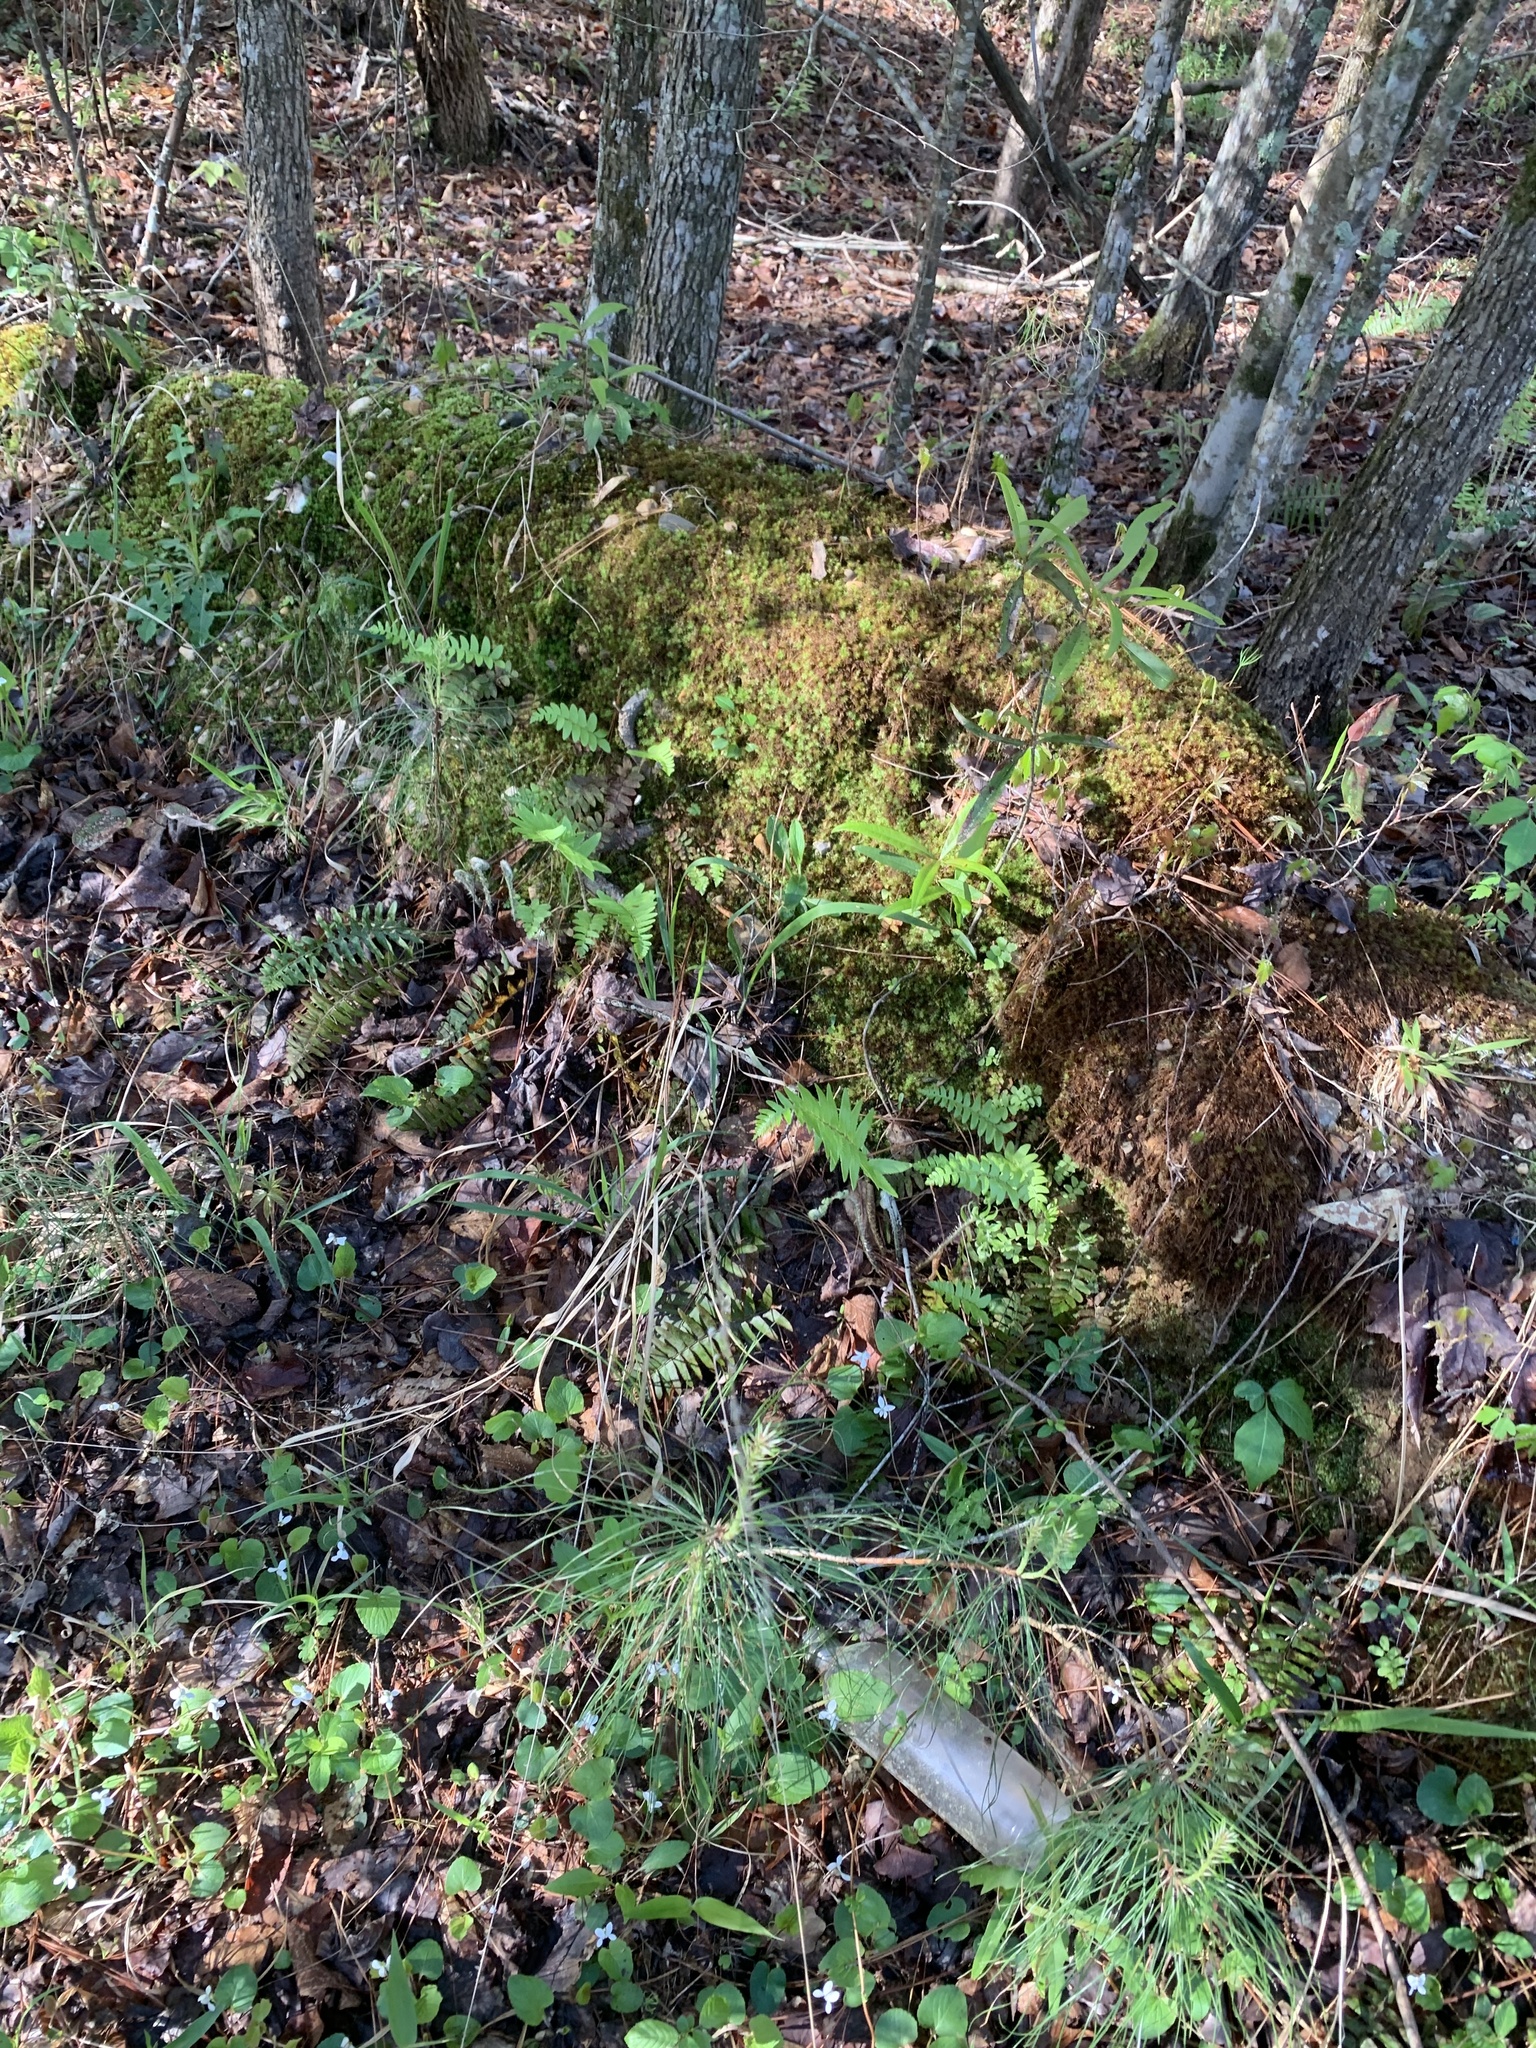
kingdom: Plantae
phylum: Tracheophyta
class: Polypodiopsida
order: Polypodiales
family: Dryopteridaceae
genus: Polystichum
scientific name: Polystichum acrostichoides
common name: Christmas fern
